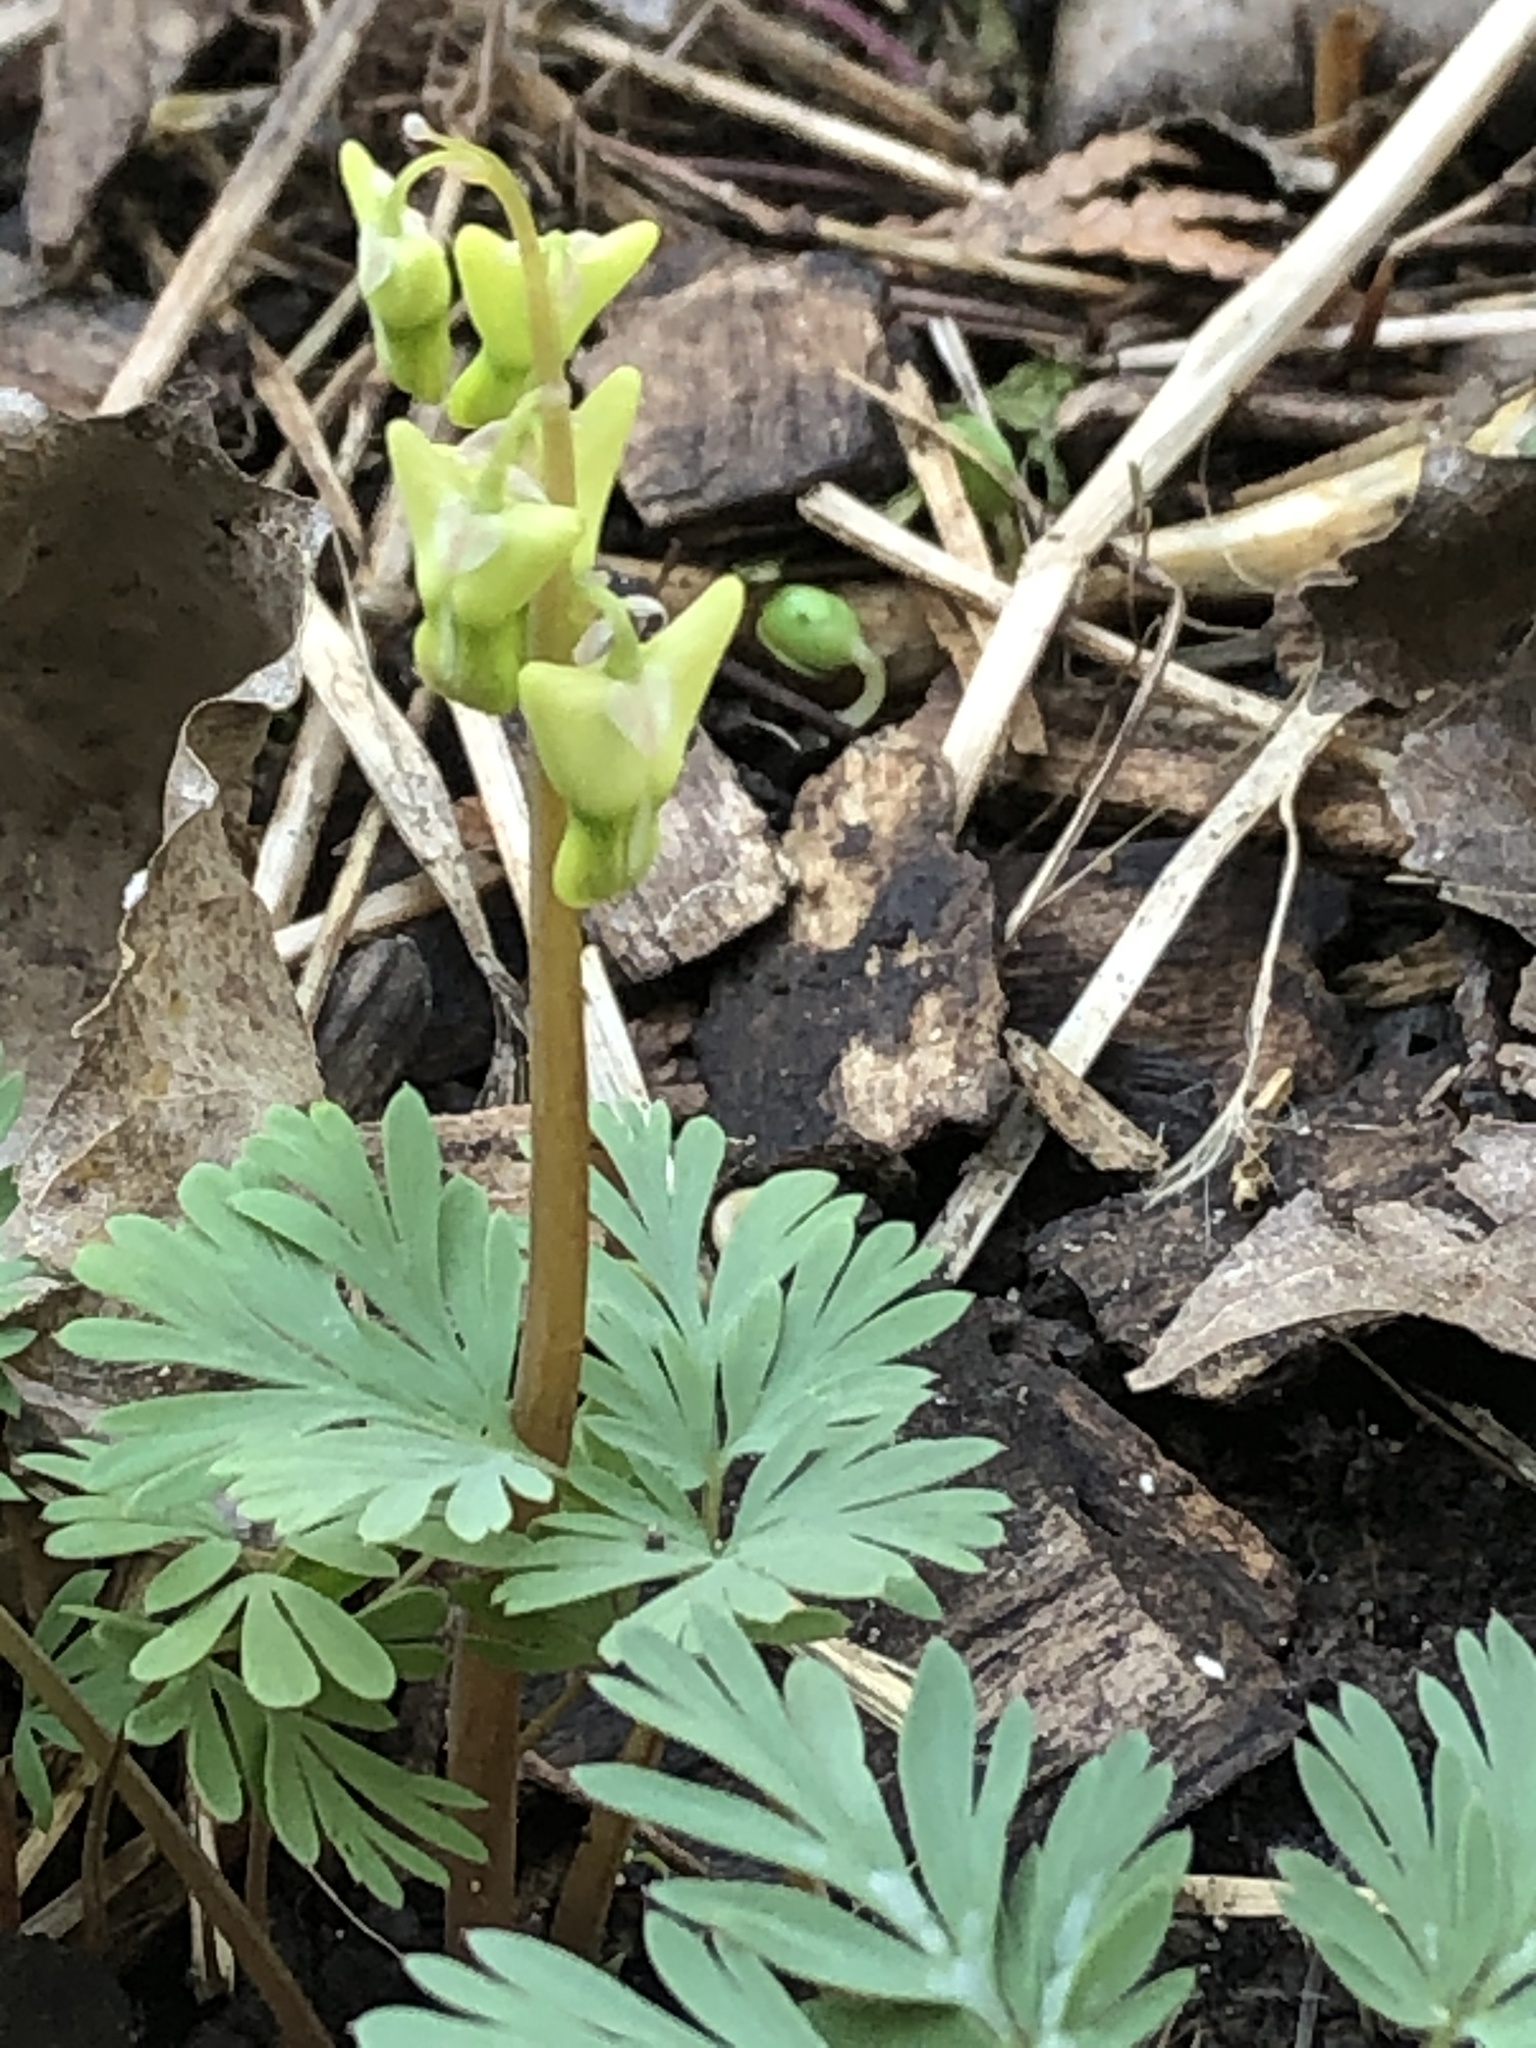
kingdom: Plantae
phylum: Tracheophyta
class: Magnoliopsida
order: Ranunculales
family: Papaveraceae
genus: Dicentra
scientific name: Dicentra cucullaria
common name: Dutchman's breeches
